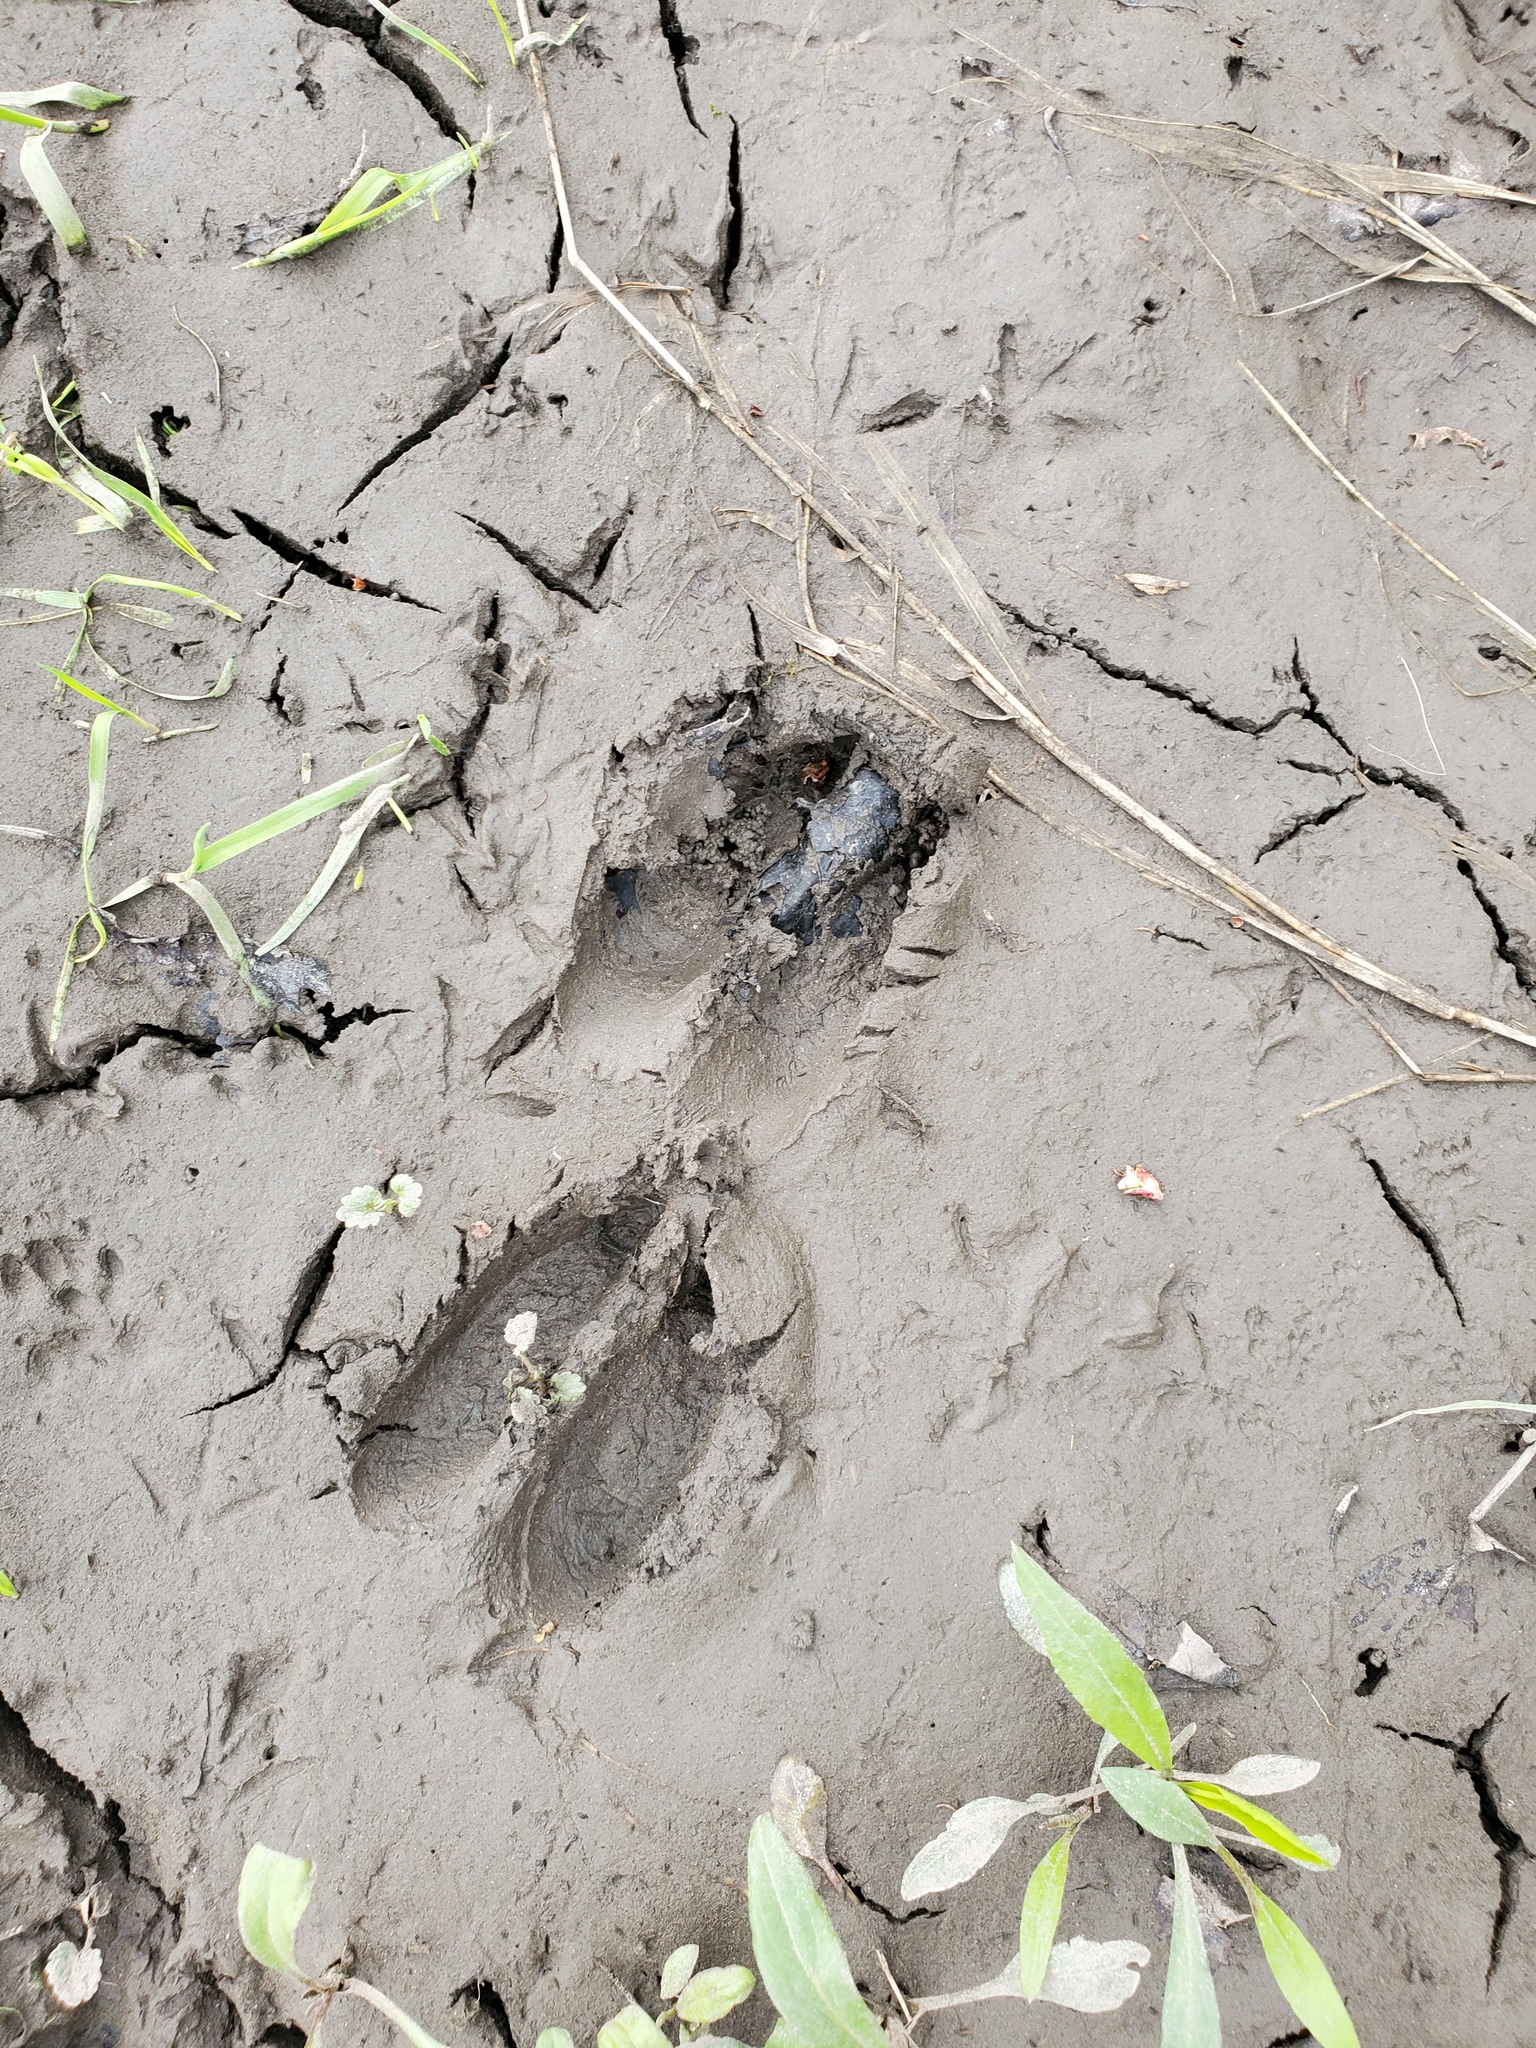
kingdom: Animalia
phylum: Chordata
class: Mammalia
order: Artiodactyla
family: Cervidae
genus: Odocoileus
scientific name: Odocoileus virginianus
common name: White-tailed deer
